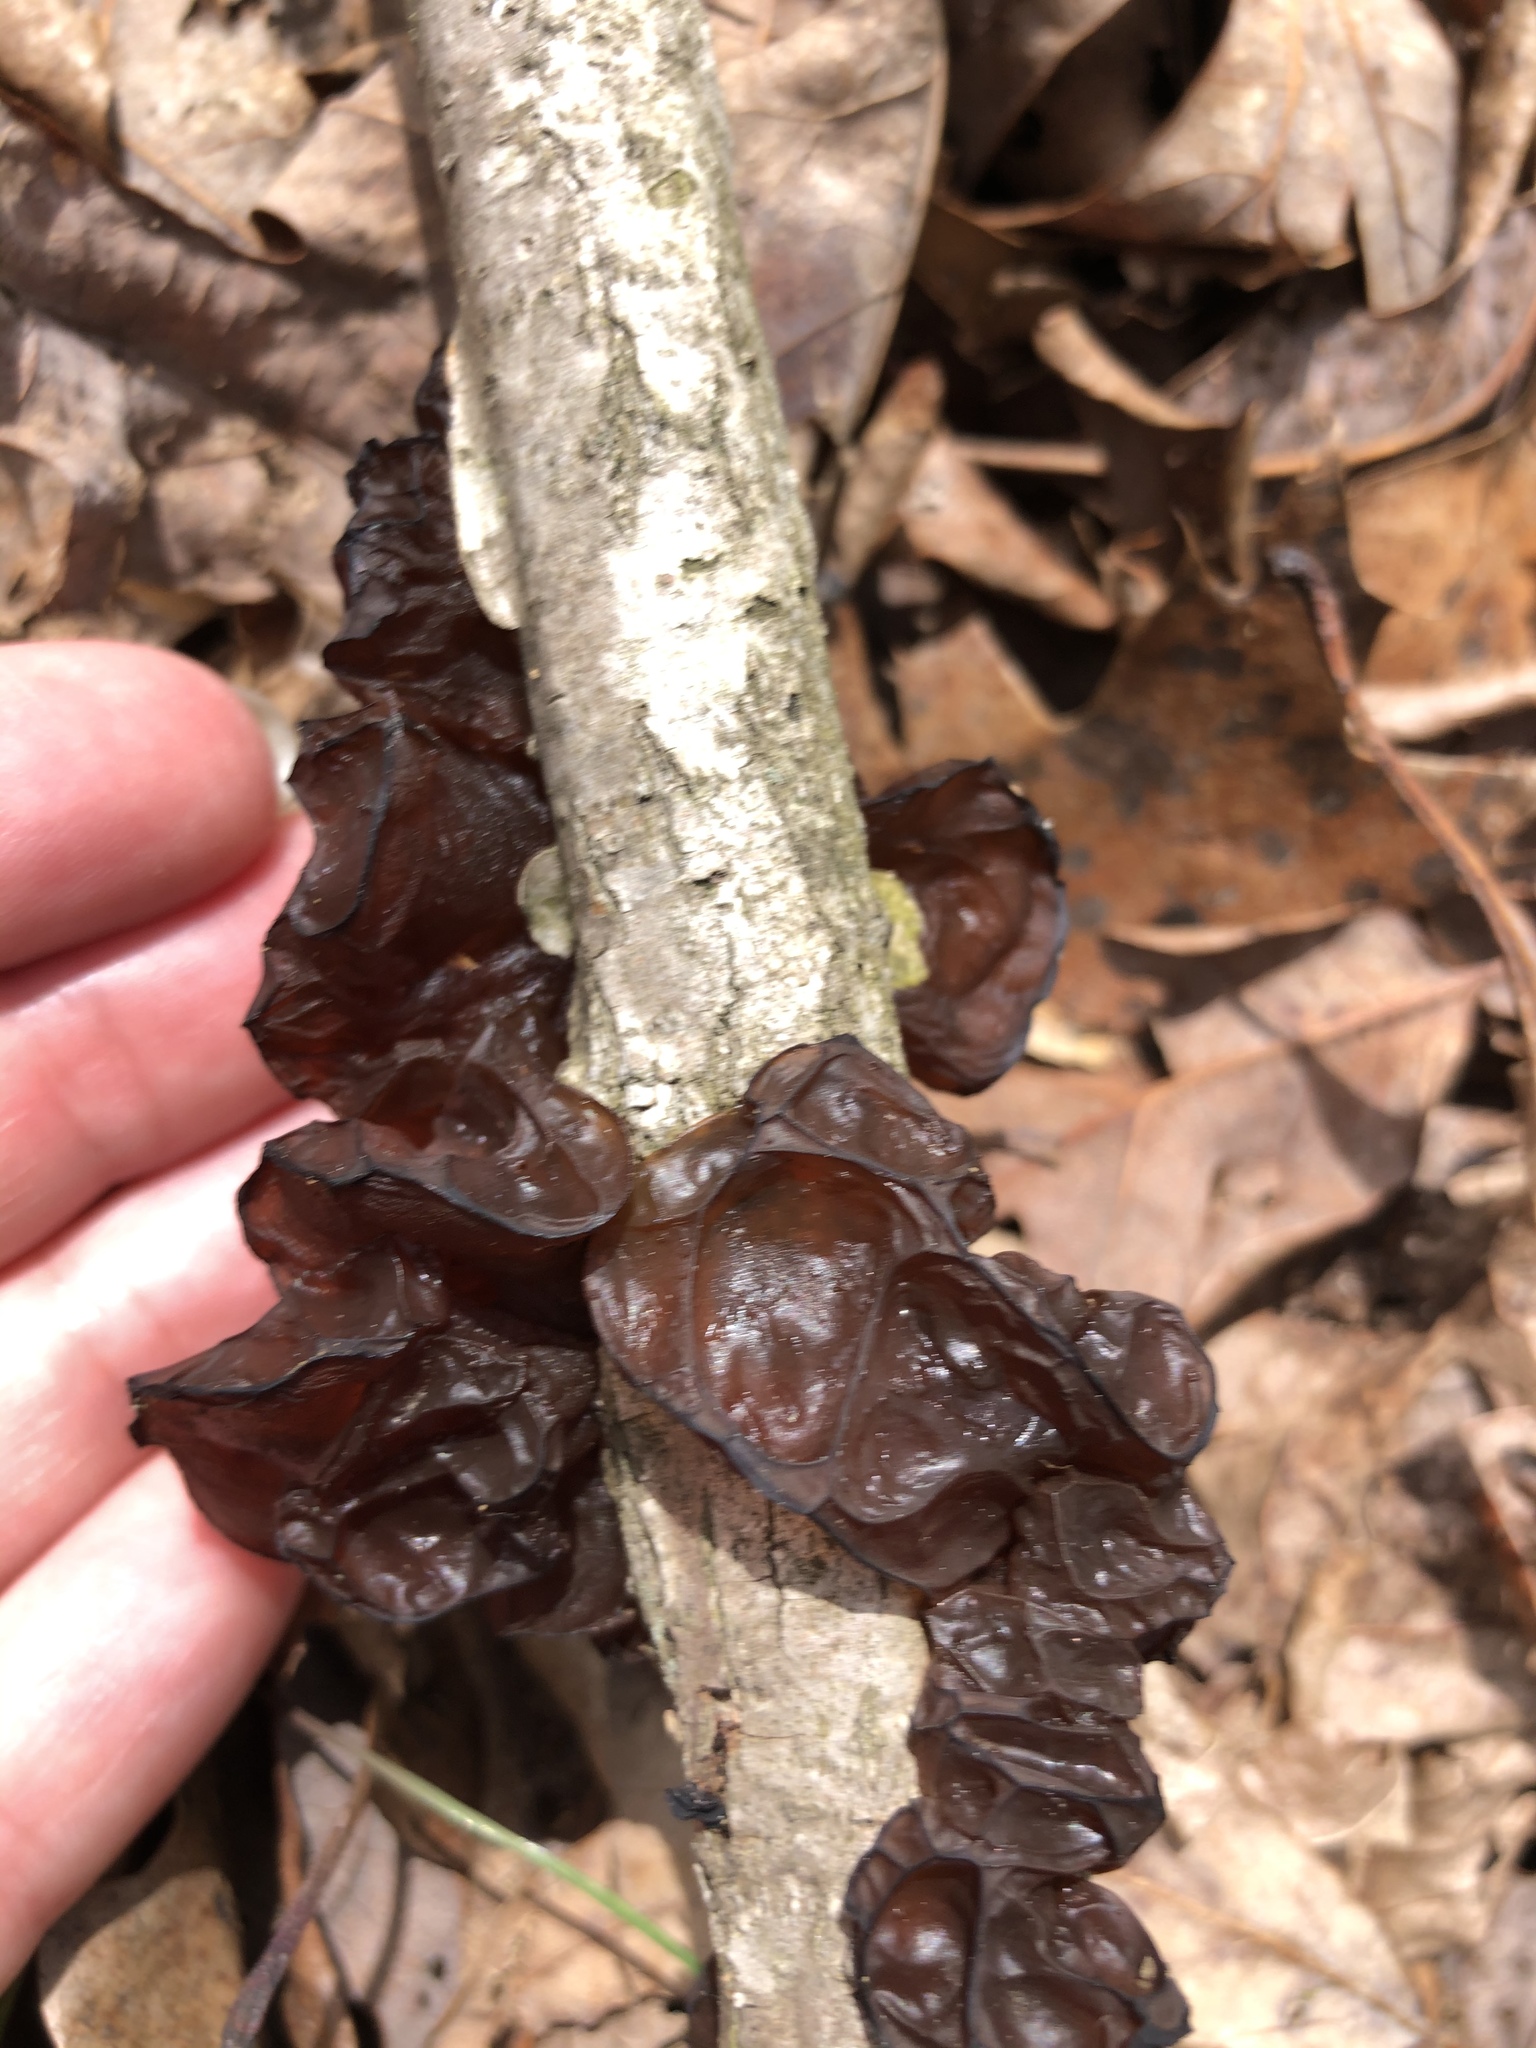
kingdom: Fungi
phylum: Basidiomycota
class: Agaricomycetes
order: Auriculariales
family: Auriculariaceae
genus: Exidia
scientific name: Exidia
